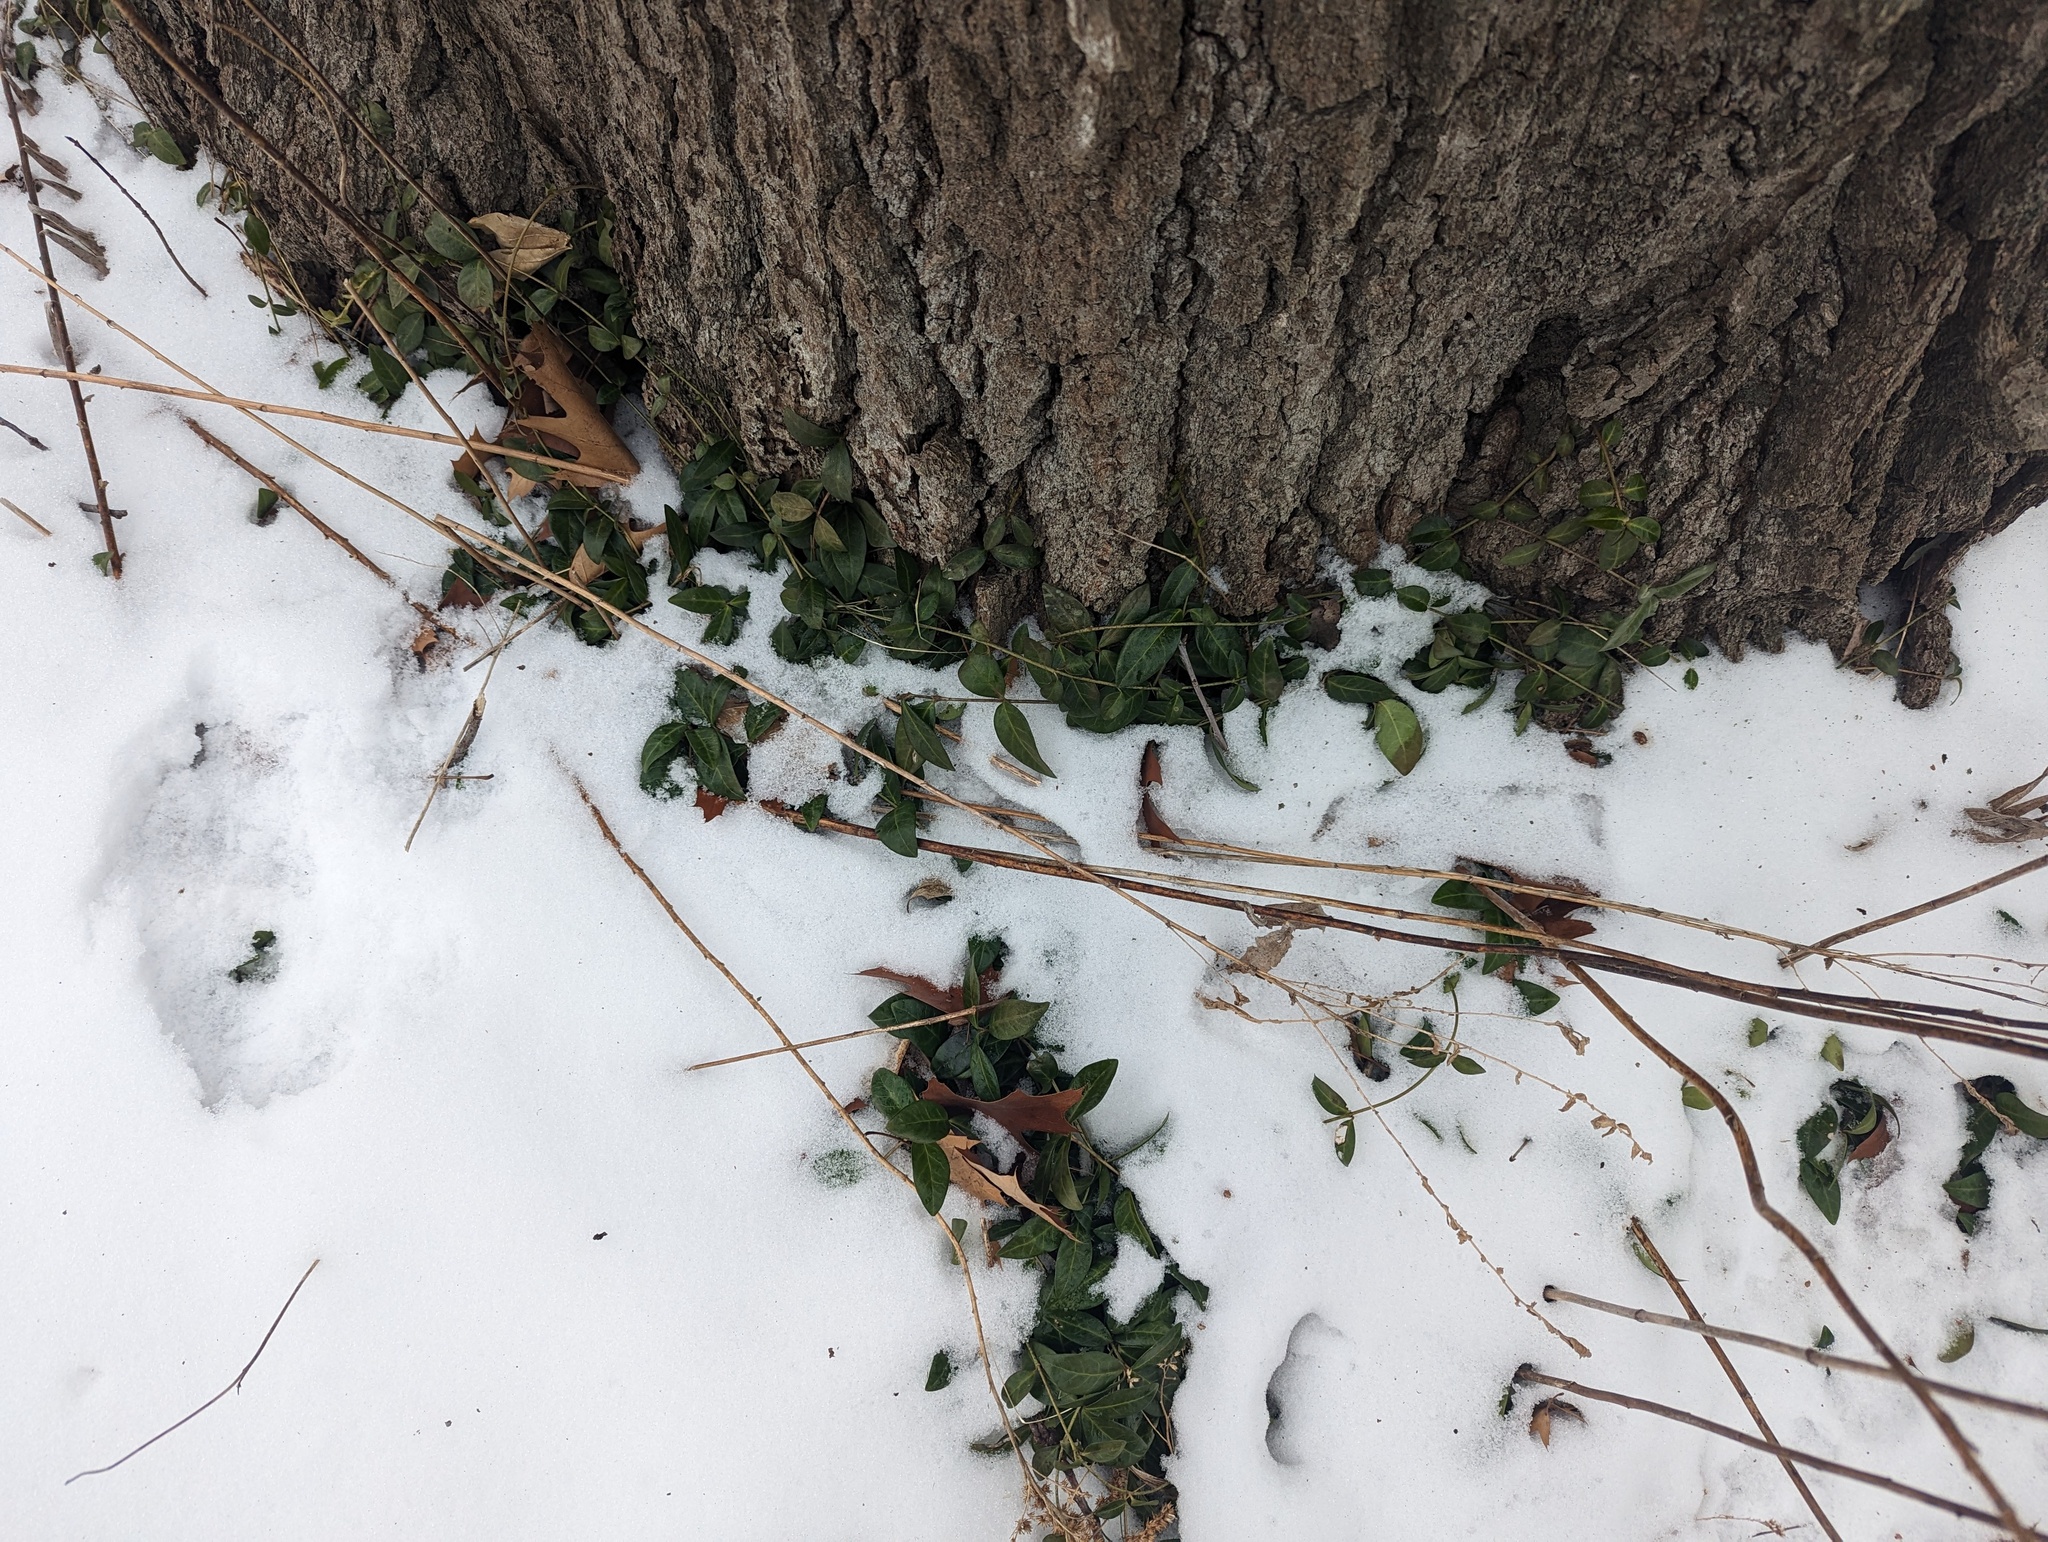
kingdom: Plantae
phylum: Tracheophyta
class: Magnoliopsida
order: Gentianales
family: Apocynaceae
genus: Vinca
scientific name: Vinca minor
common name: Lesser periwinkle
